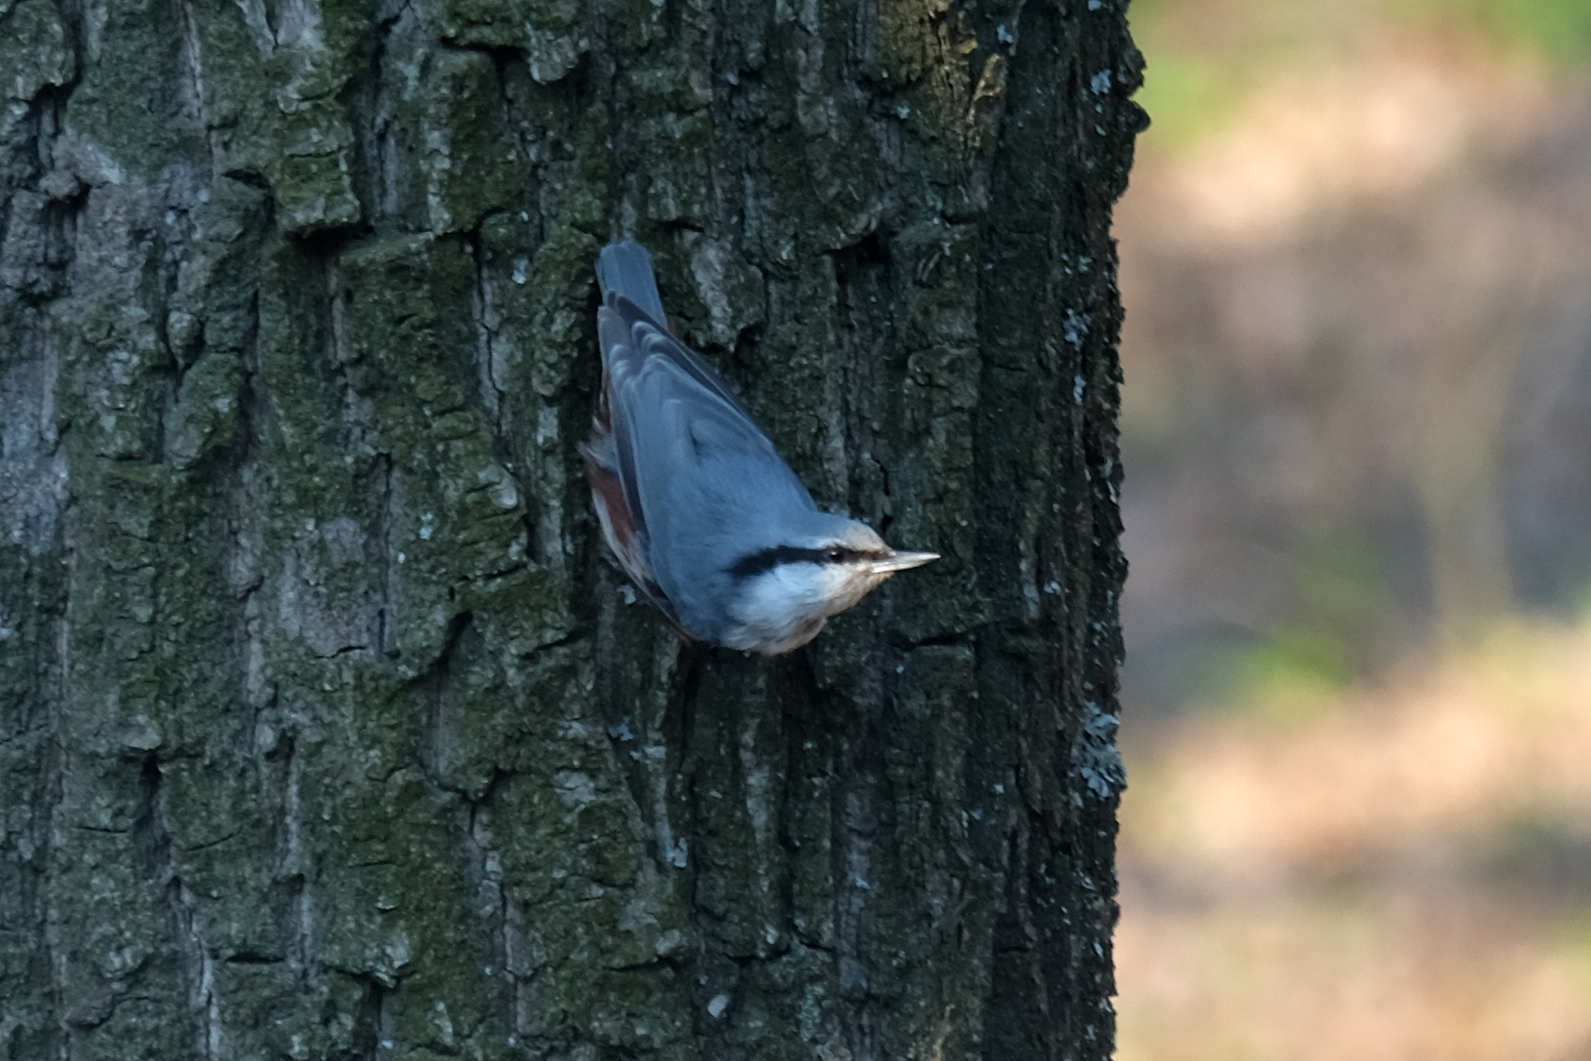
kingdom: Animalia
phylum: Chordata
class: Aves
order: Passeriformes
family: Sittidae
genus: Sitta
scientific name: Sitta europaea
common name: Eurasian nuthatch
